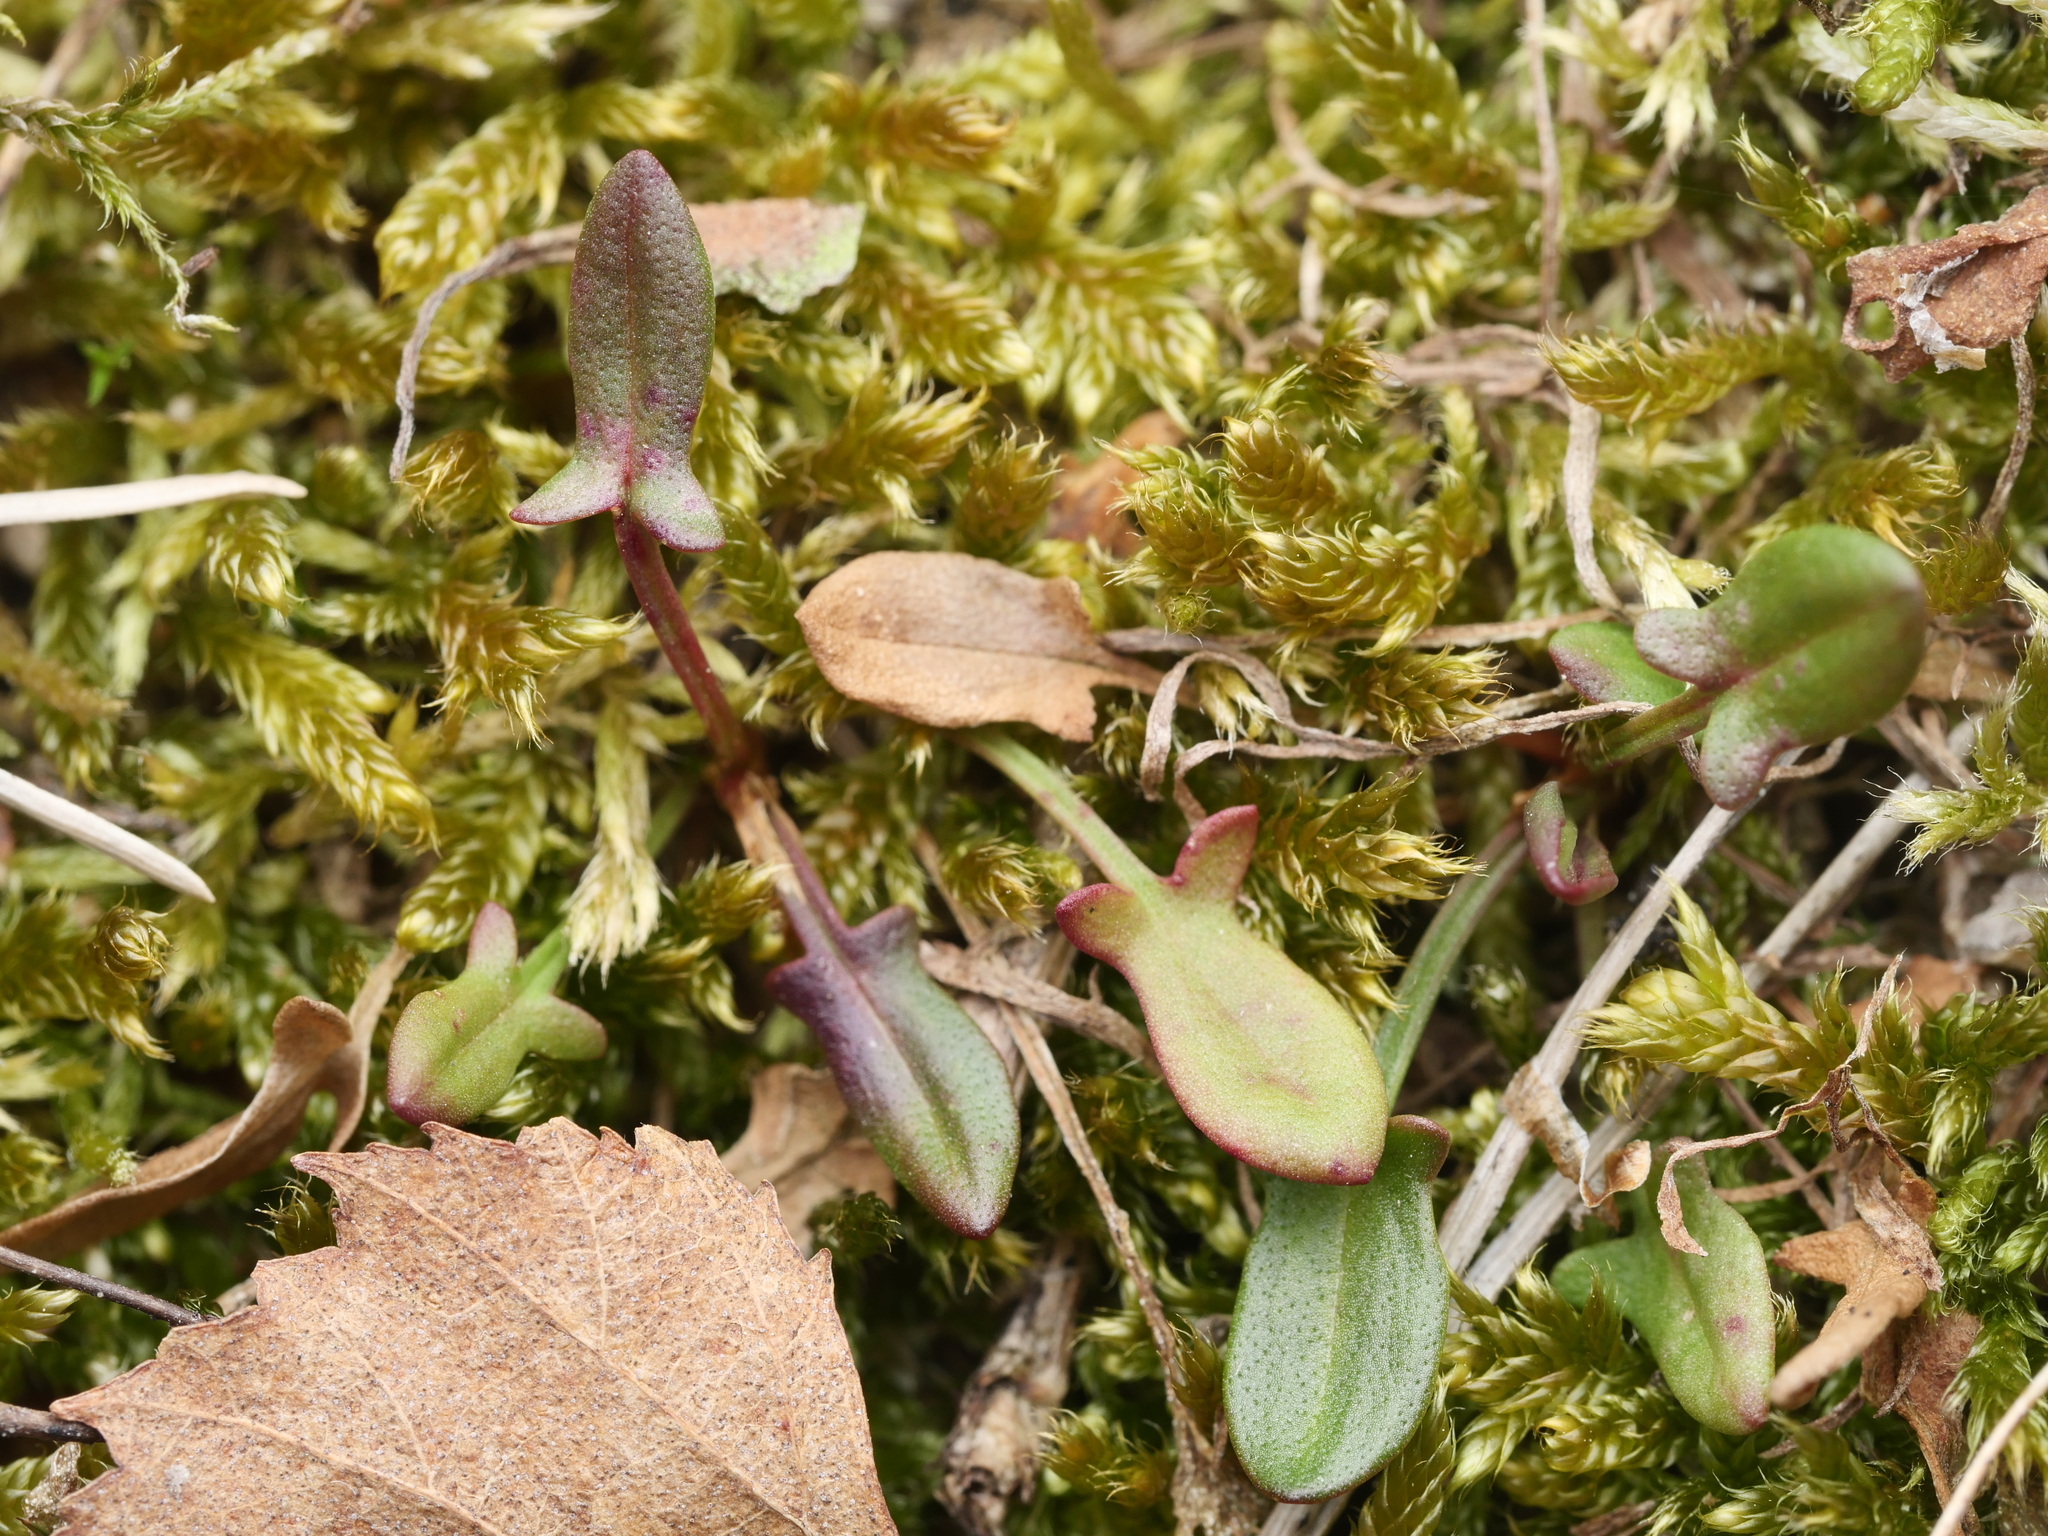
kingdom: Plantae
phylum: Tracheophyta
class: Magnoliopsida
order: Caryophyllales
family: Polygonaceae
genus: Rumex
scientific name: Rumex acetosella
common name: Common sheep sorrel
